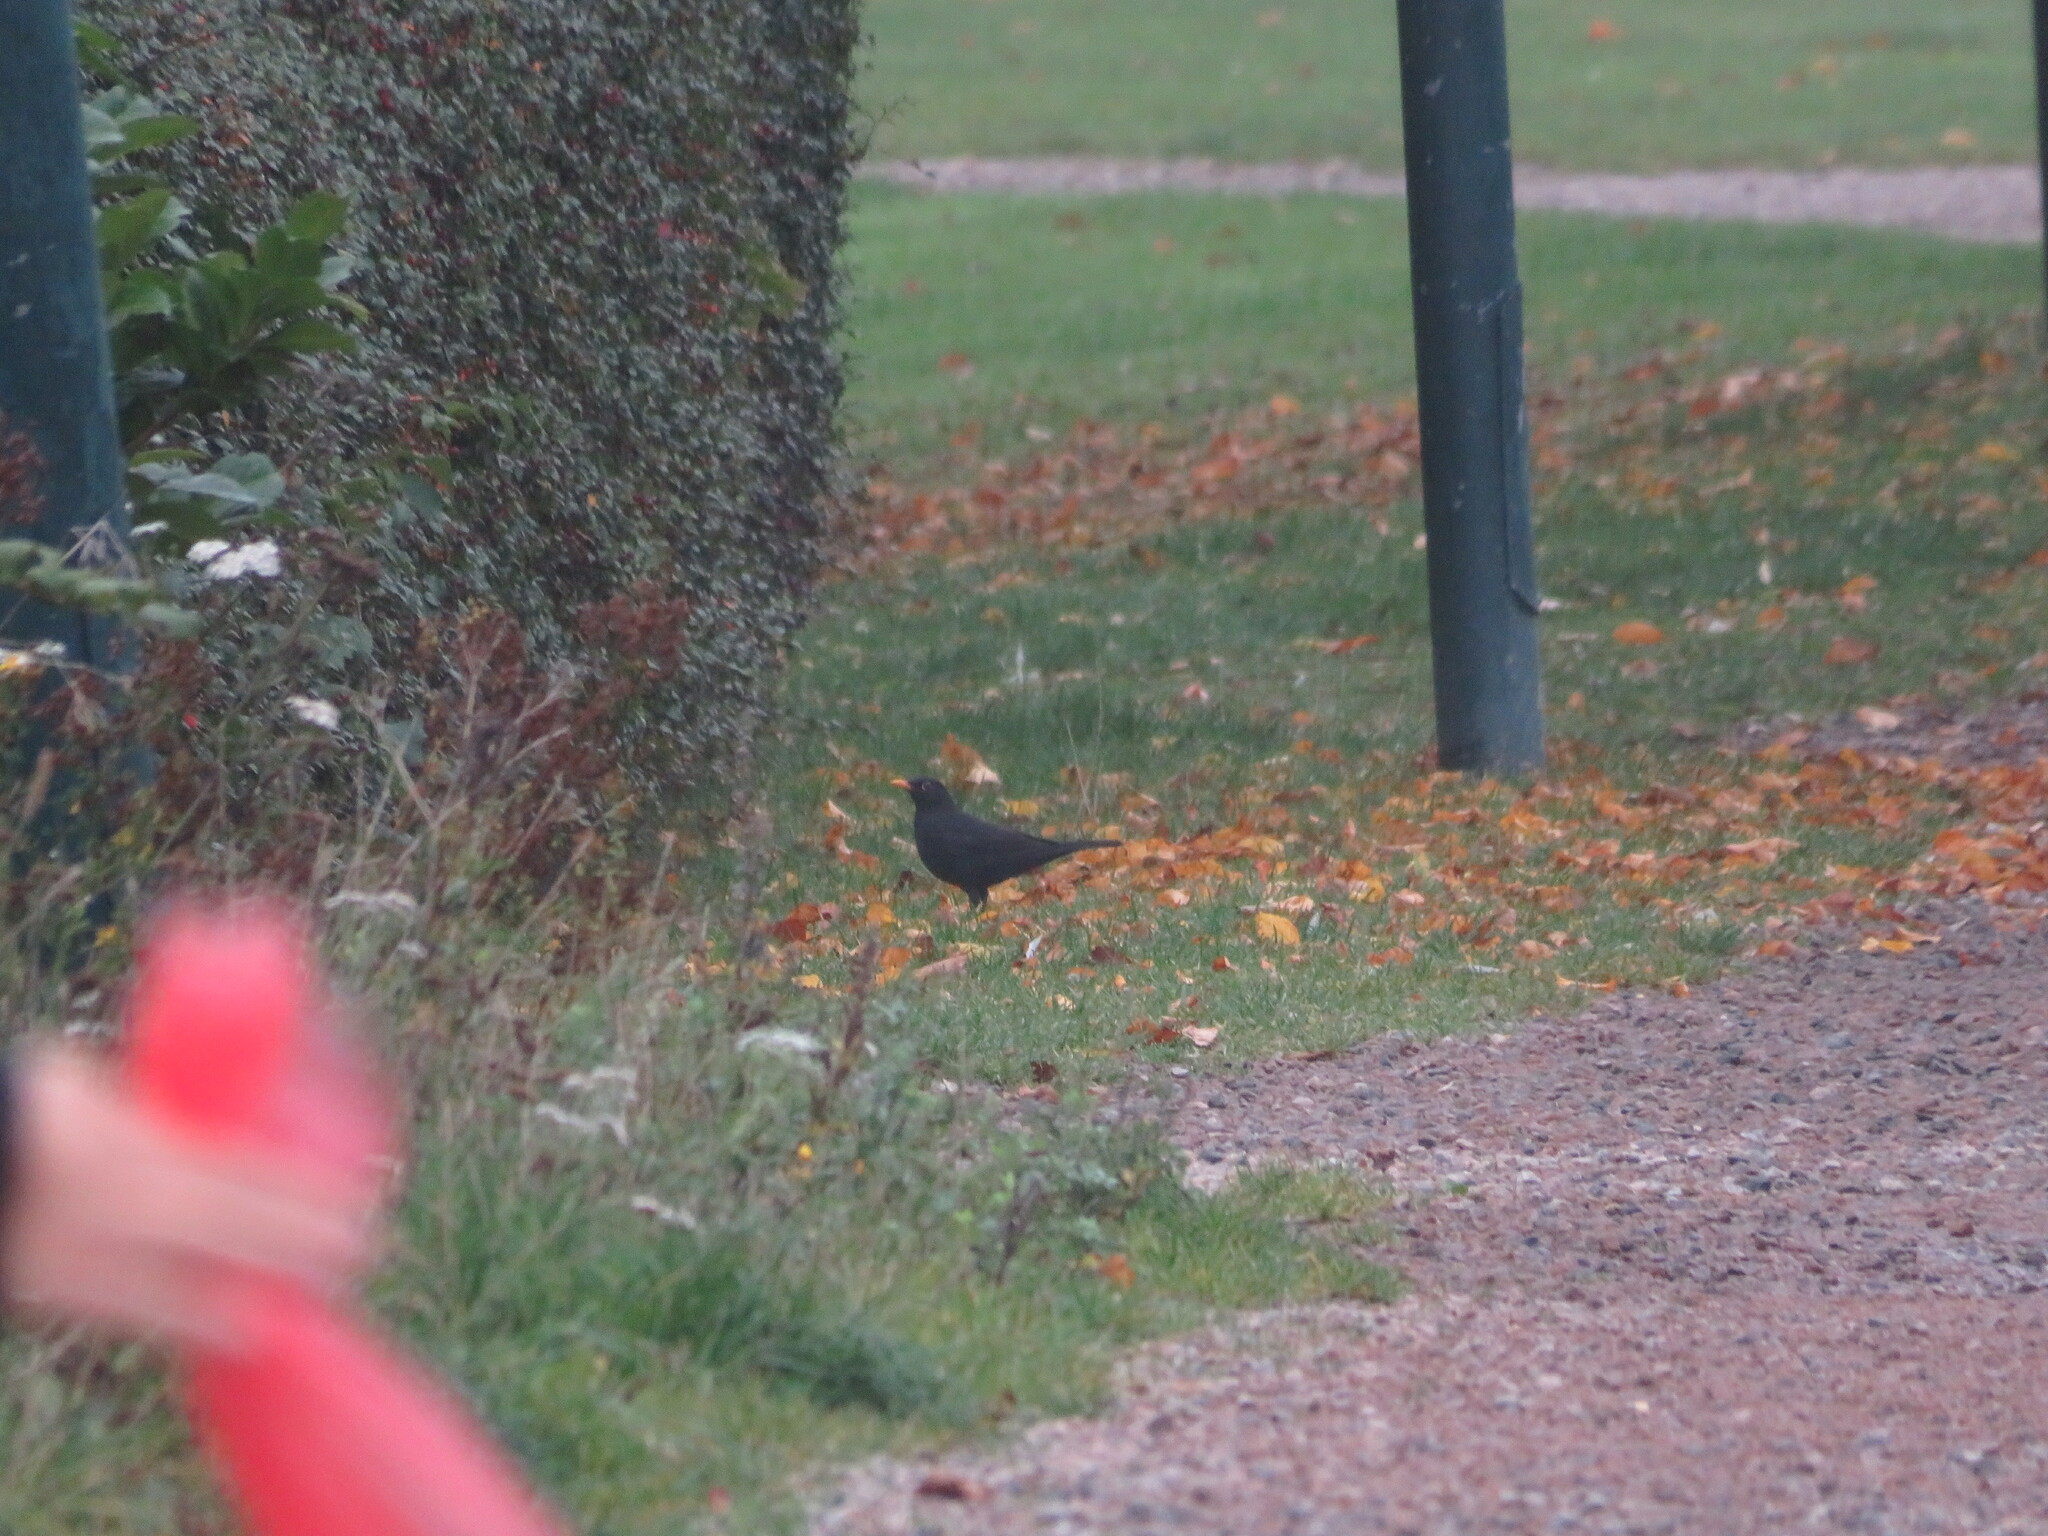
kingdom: Animalia
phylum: Chordata
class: Aves
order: Passeriformes
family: Turdidae
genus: Turdus
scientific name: Turdus merula
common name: Common blackbird
